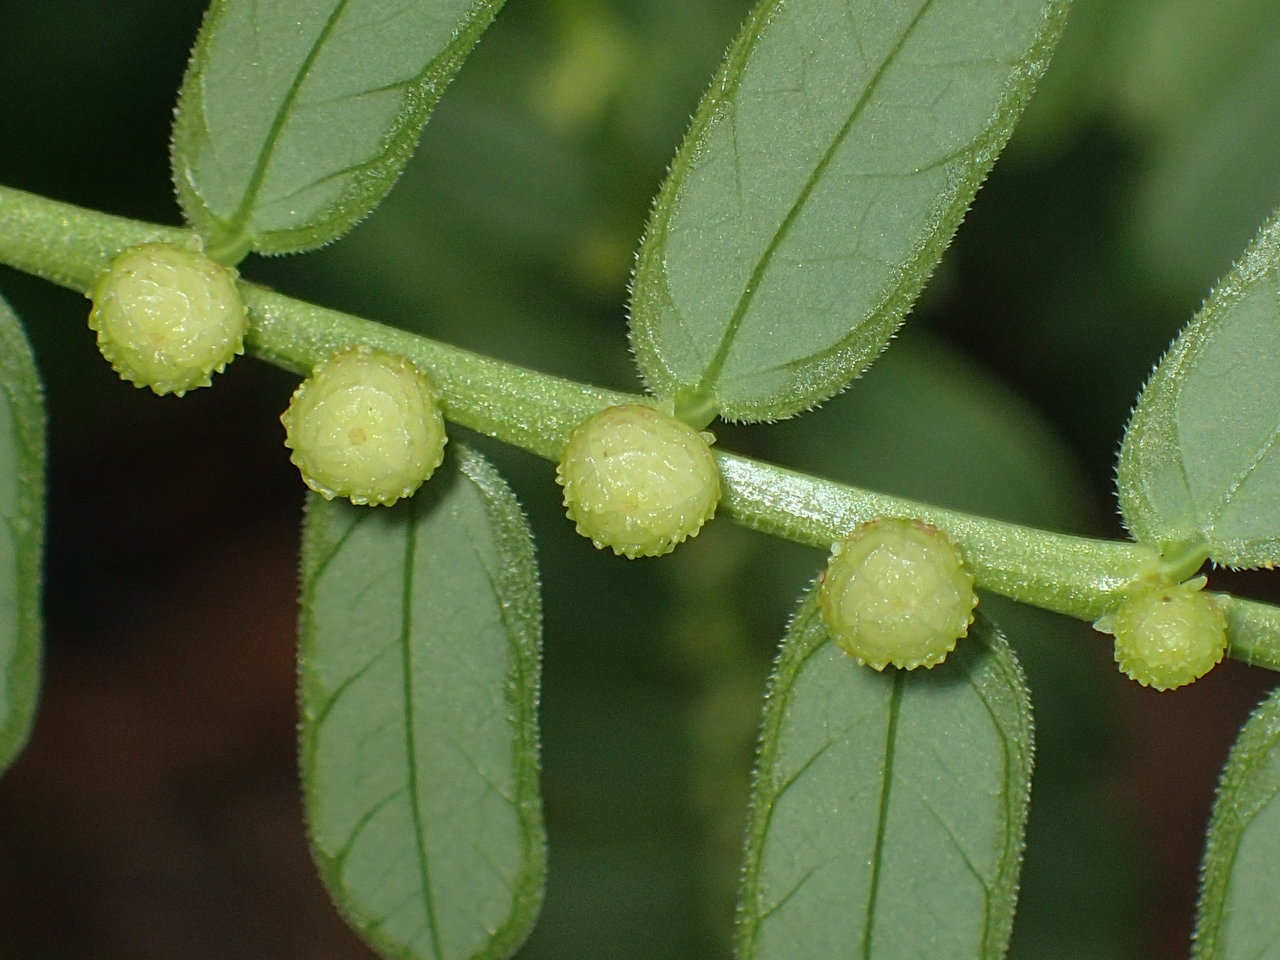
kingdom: Plantae
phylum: Tracheophyta
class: Magnoliopsida
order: Malpighiales
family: Phyllanthaceae
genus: Phyllanthus
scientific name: Phyllanthus urinaria
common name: Chamber bitter
